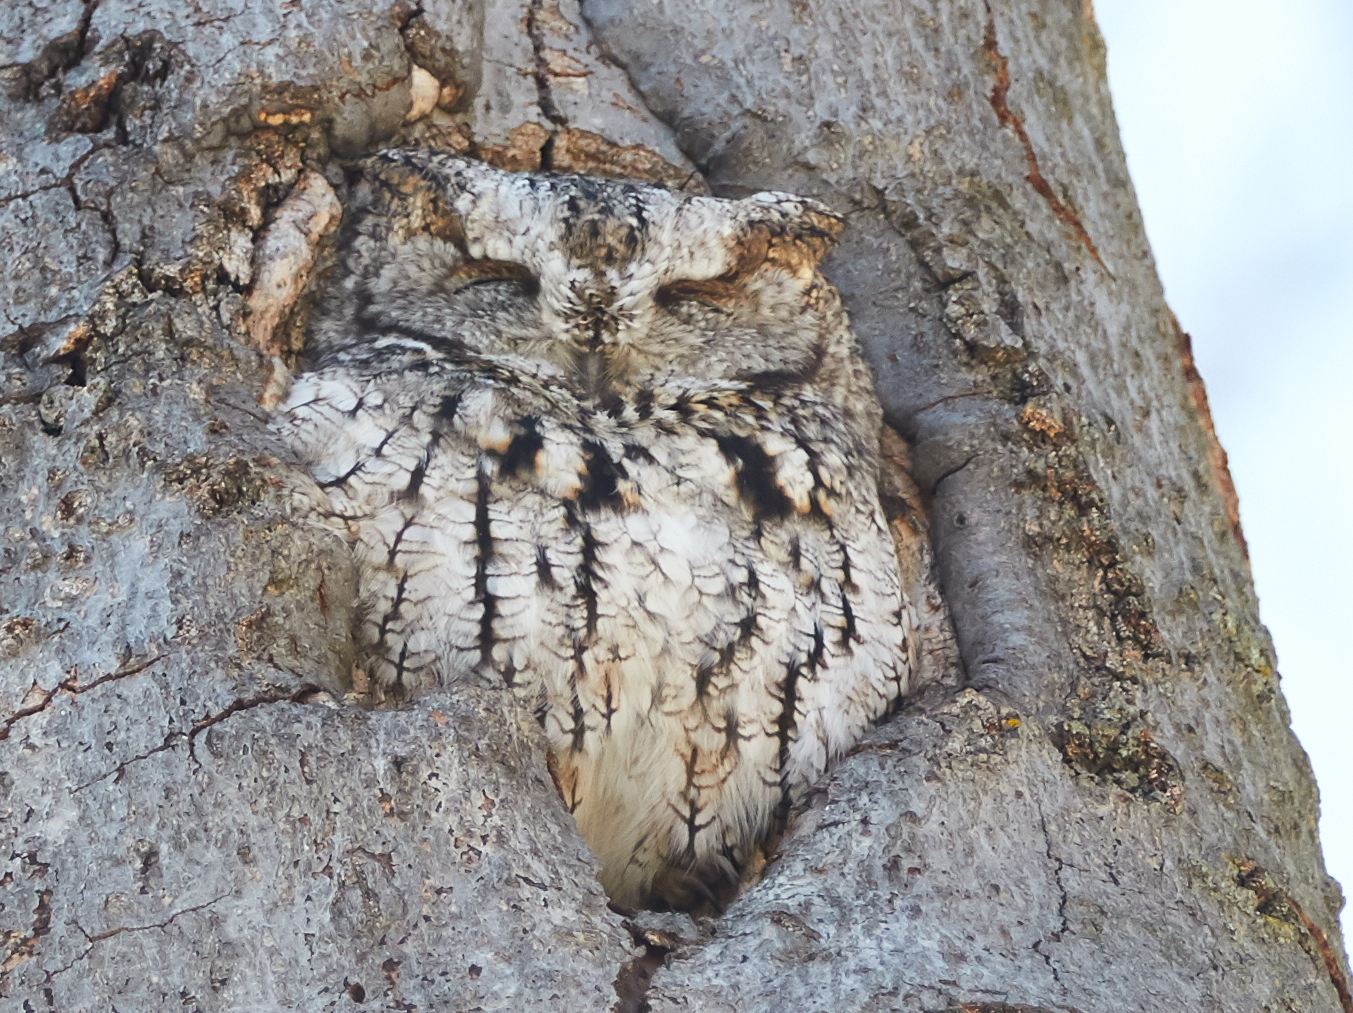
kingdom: Animalia
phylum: Chordata
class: Aves
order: Strigiformes
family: Strigidae
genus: Megascops
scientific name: Megascops asio
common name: Eastern screech-owl
